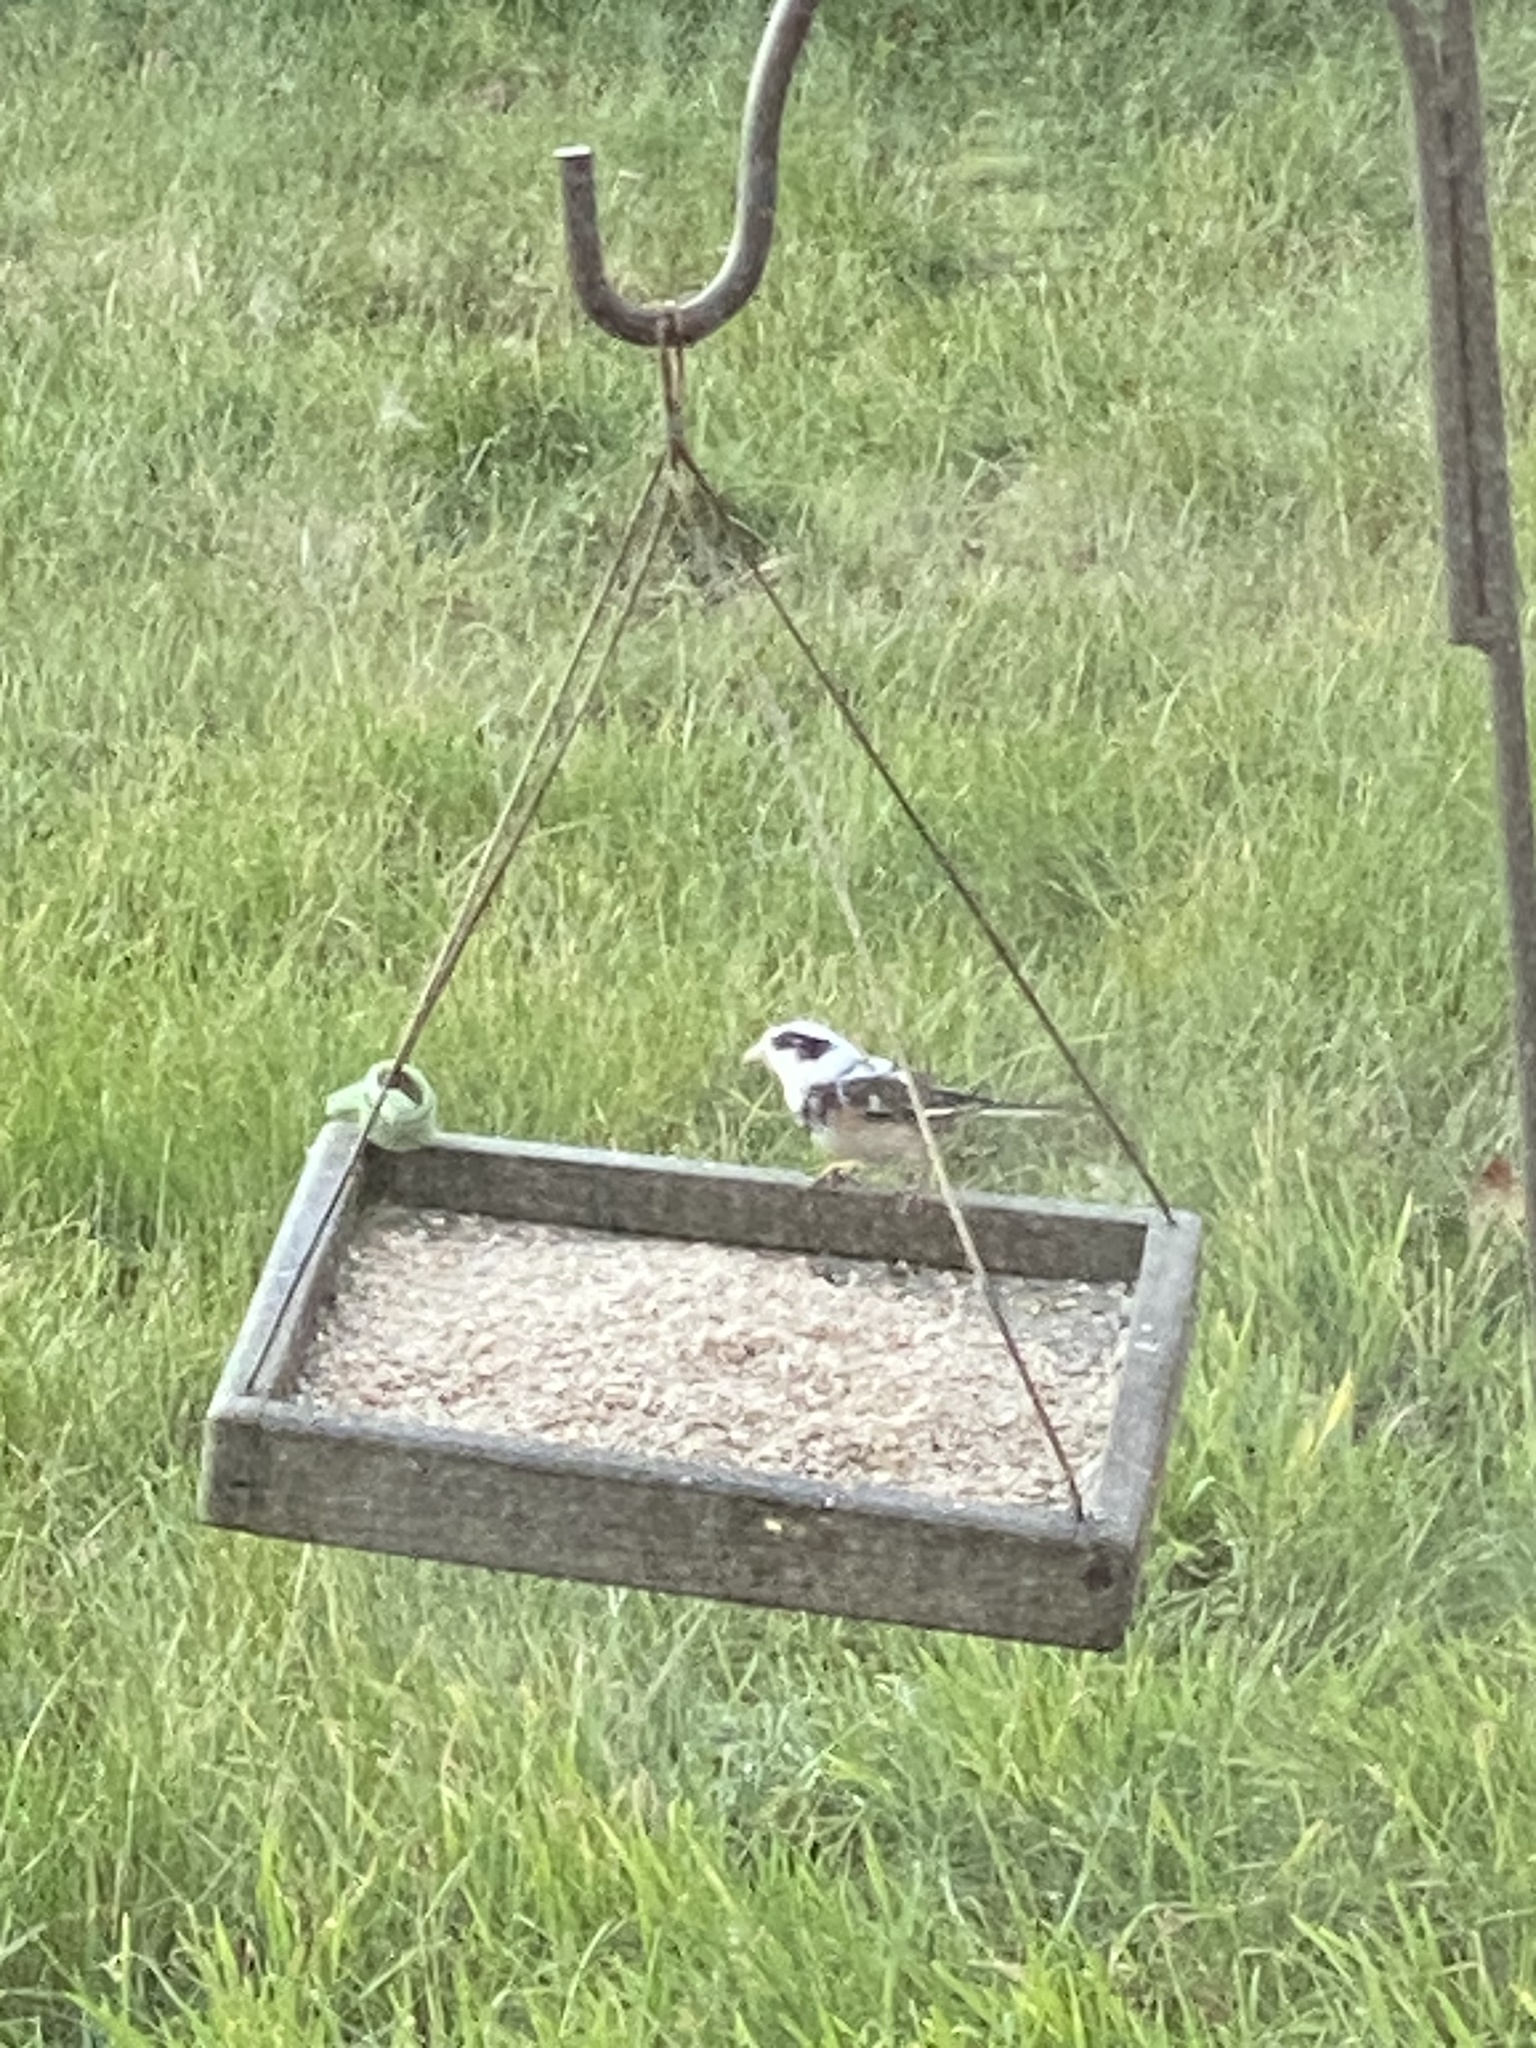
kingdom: Animalia
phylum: Chordata
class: Aves
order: Passeriformes
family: Passerellidae
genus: Junco
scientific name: Junco hyemalis
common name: Dark-eyed junco
